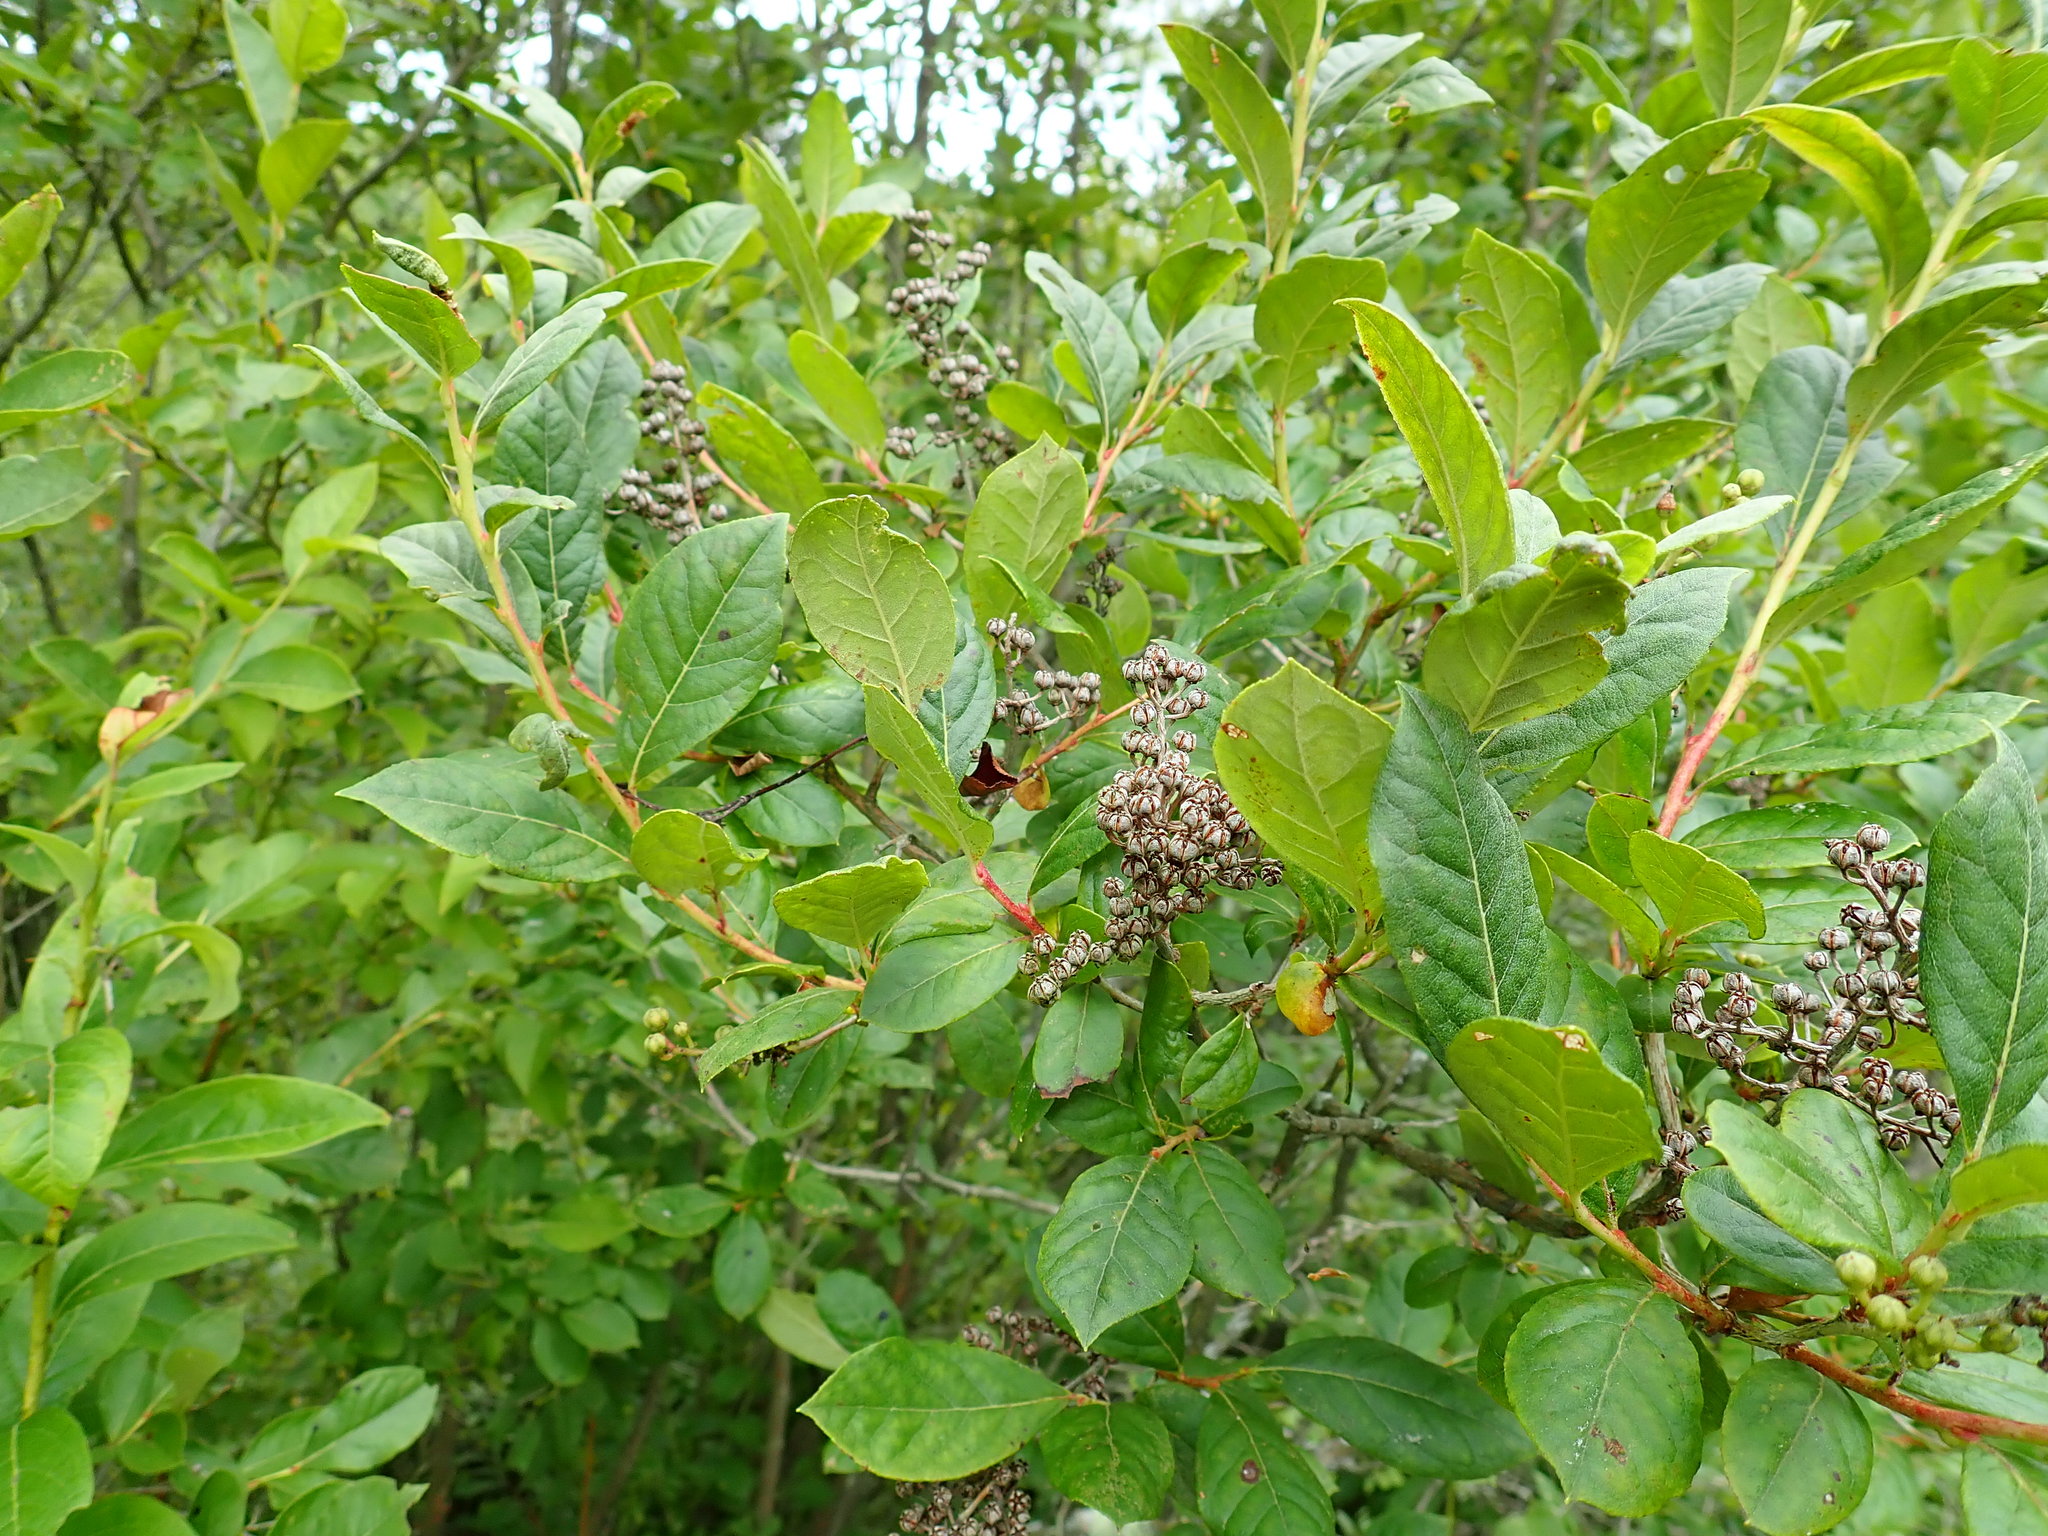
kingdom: Plantae
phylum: Tracheophyta
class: Magnoliopsida
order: Ericales
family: Ericaceae
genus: Lyonia
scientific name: Lyonia ligustrina
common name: Maleberry
